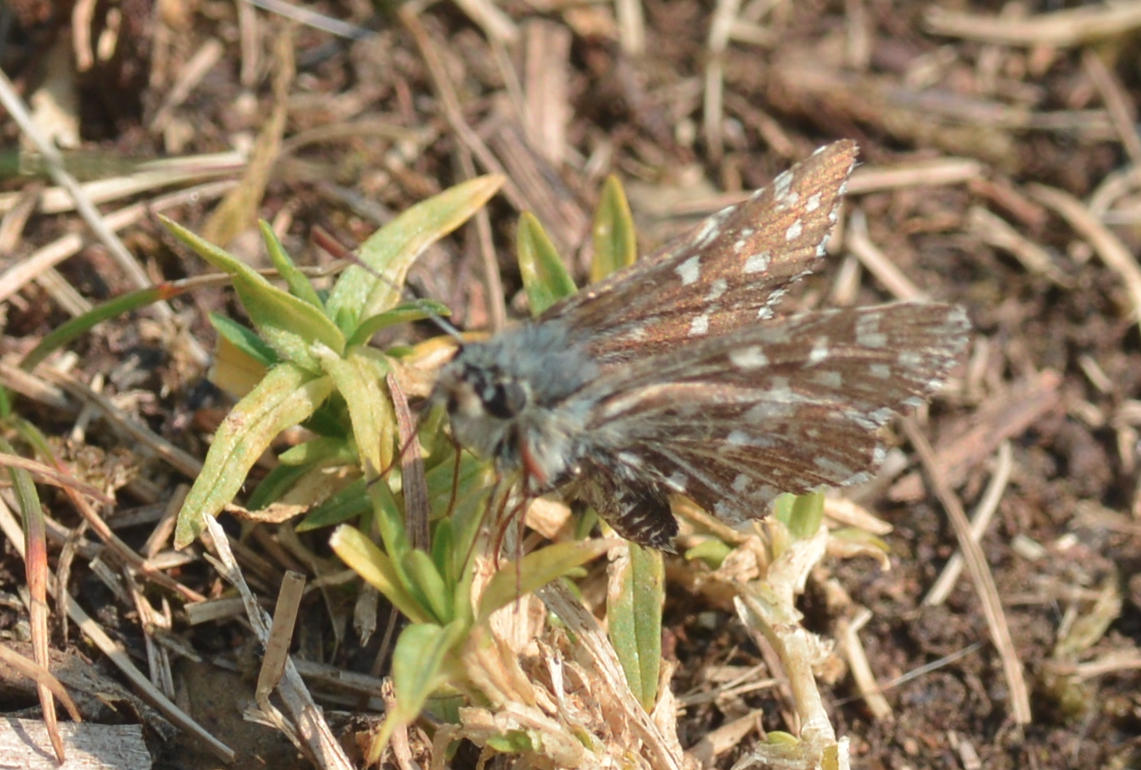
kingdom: Animalia
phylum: Arthropoda
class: Insecta
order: Lepidoptera
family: Hesperiidae
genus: Pyrgus
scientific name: Pyrgus malvae
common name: Grizzled skipper
